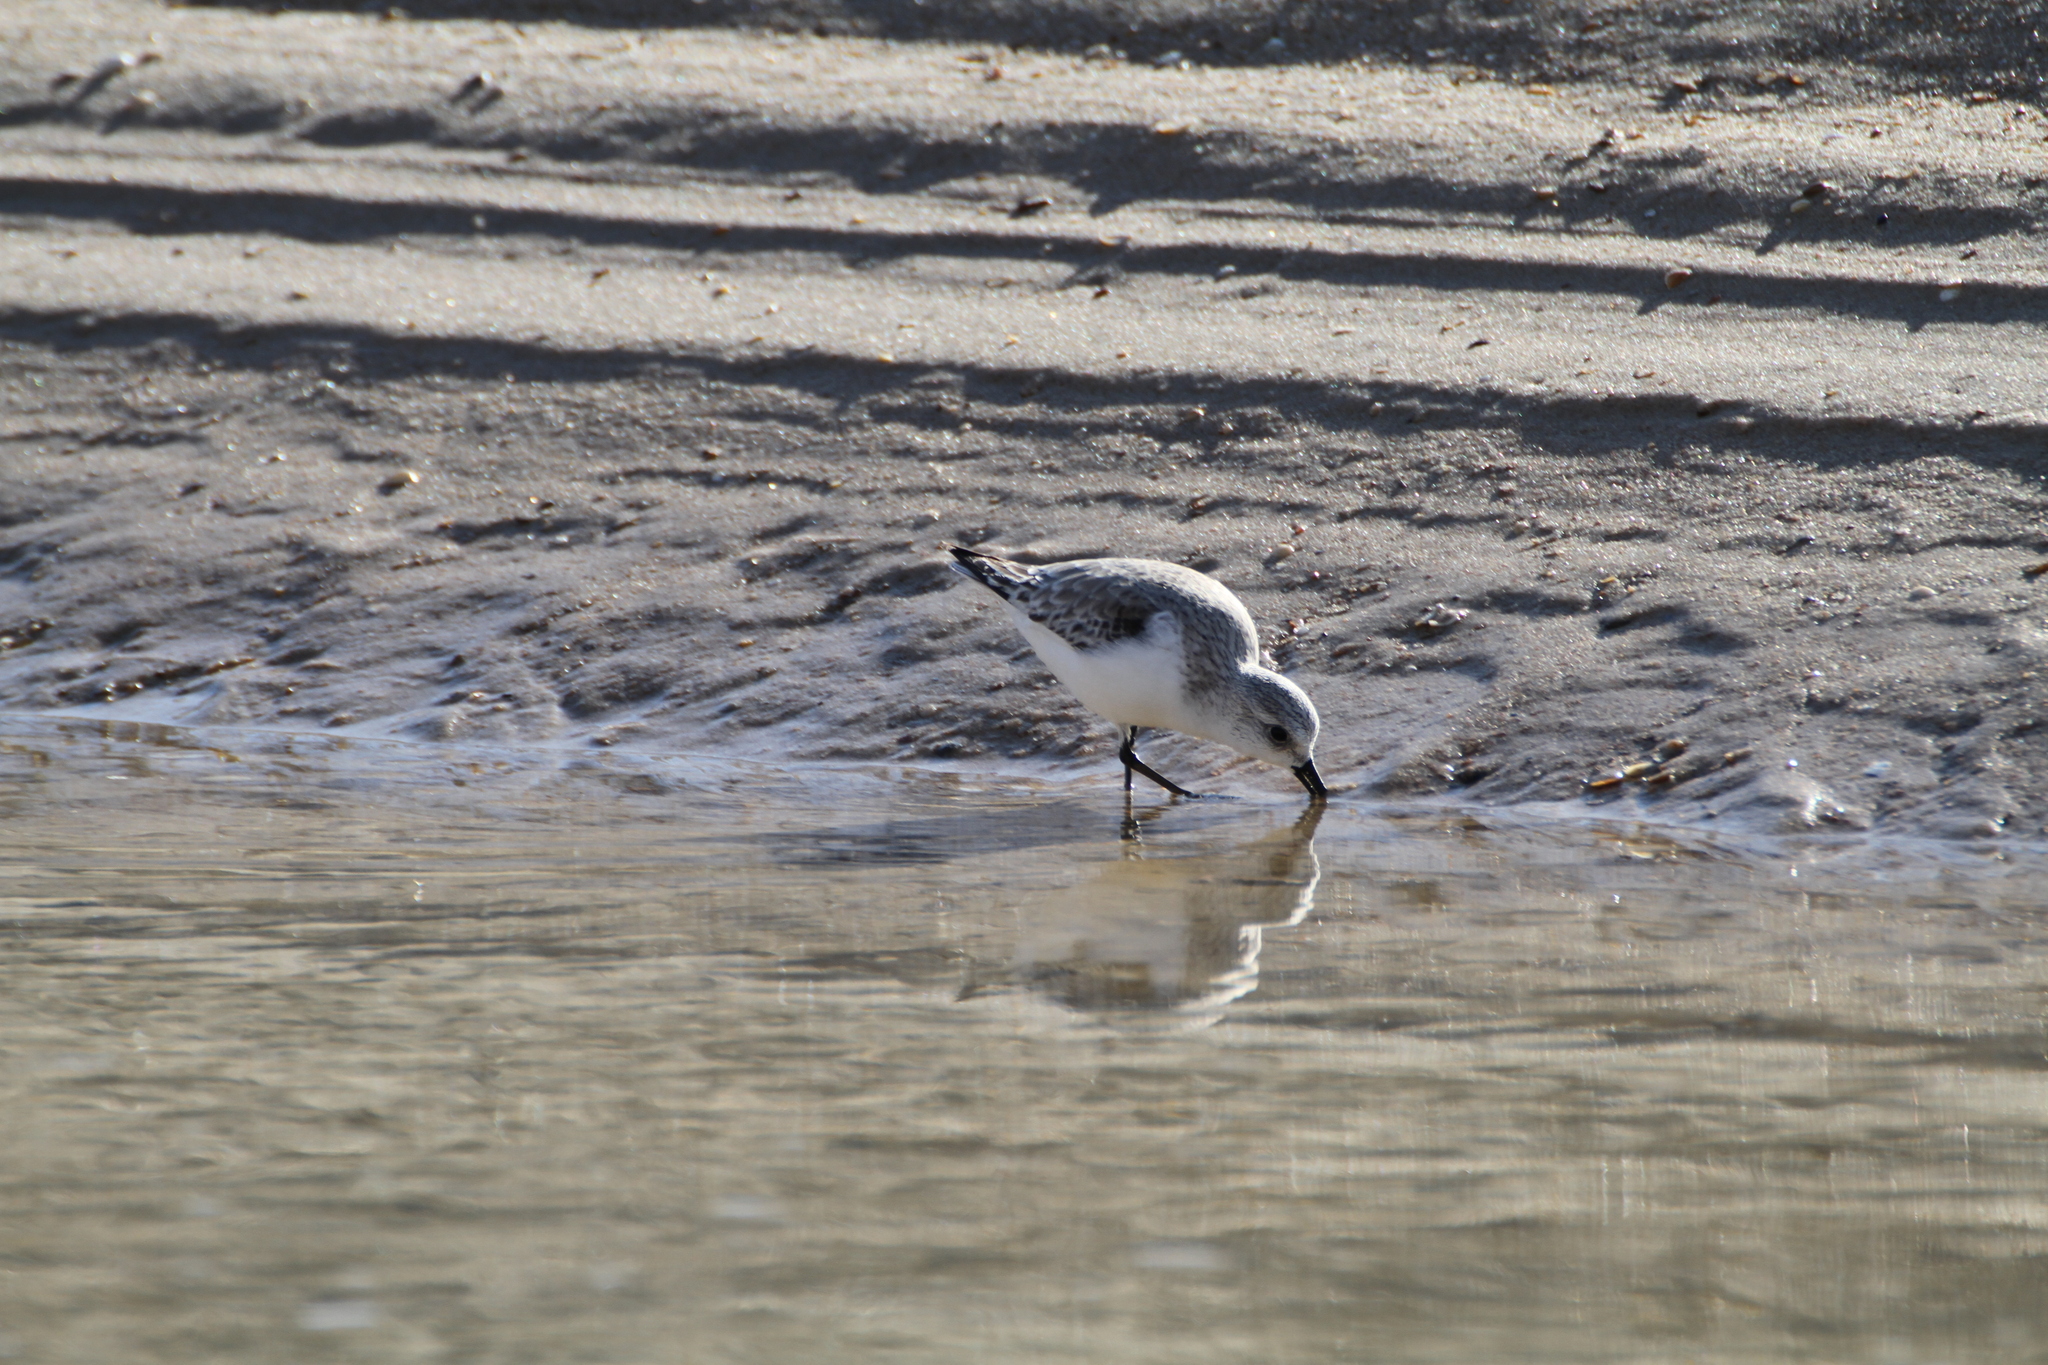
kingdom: Animalia
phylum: Chordata
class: Aves
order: Charadriiformes
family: Scolopacidae
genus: Calidris
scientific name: Calidris alba
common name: Sanderling
